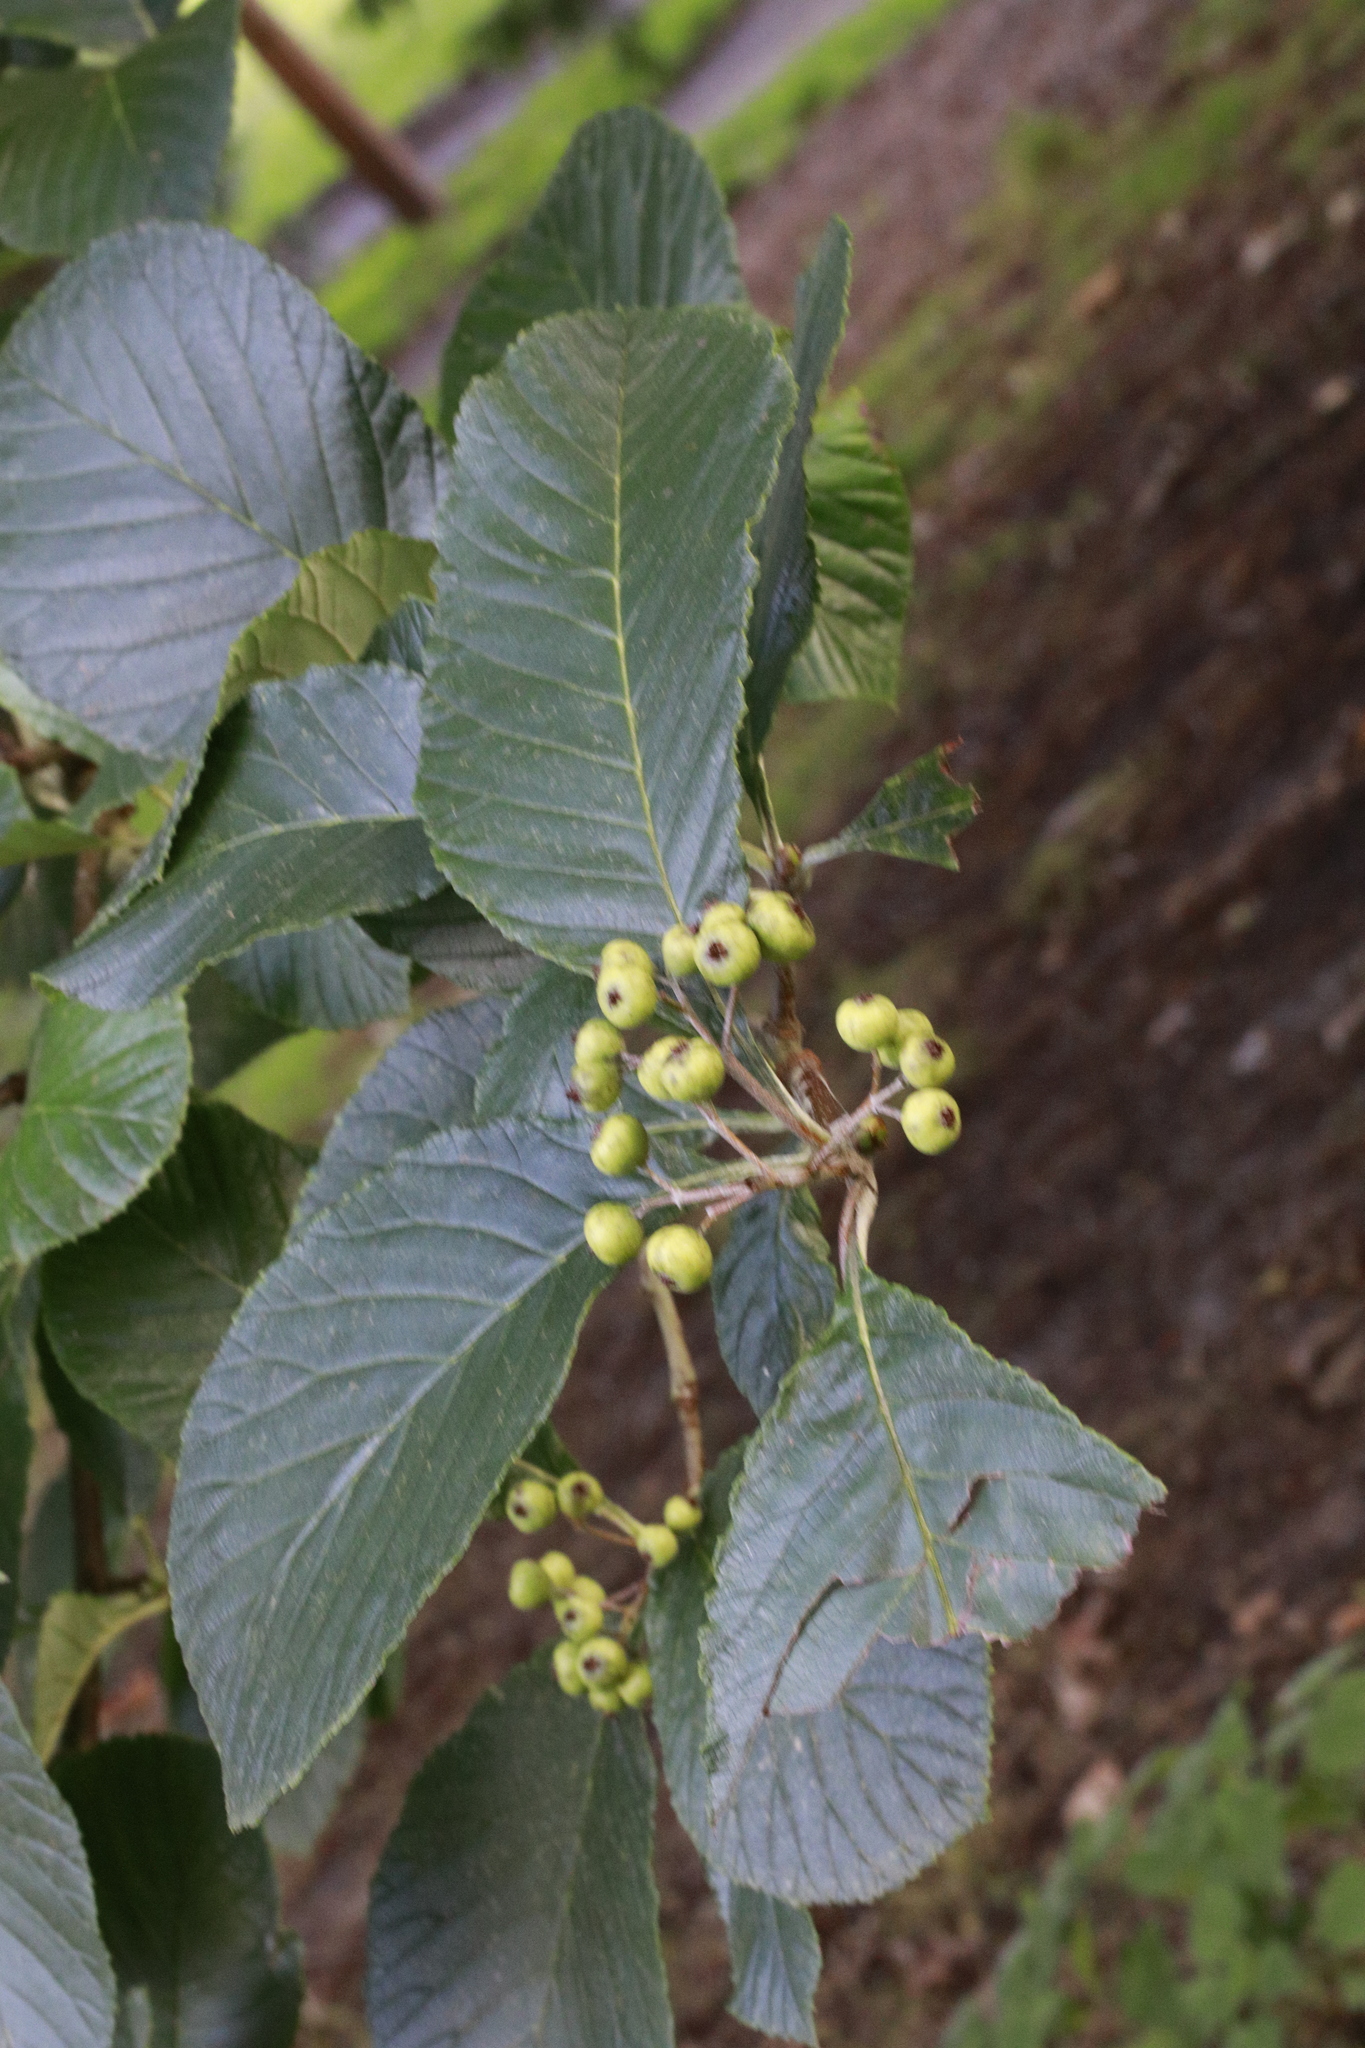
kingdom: Plantae
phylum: Tracheophyta
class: Magnoliopsida
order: Rosales
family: Rosaceae
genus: Aria
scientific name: Aria edulis
